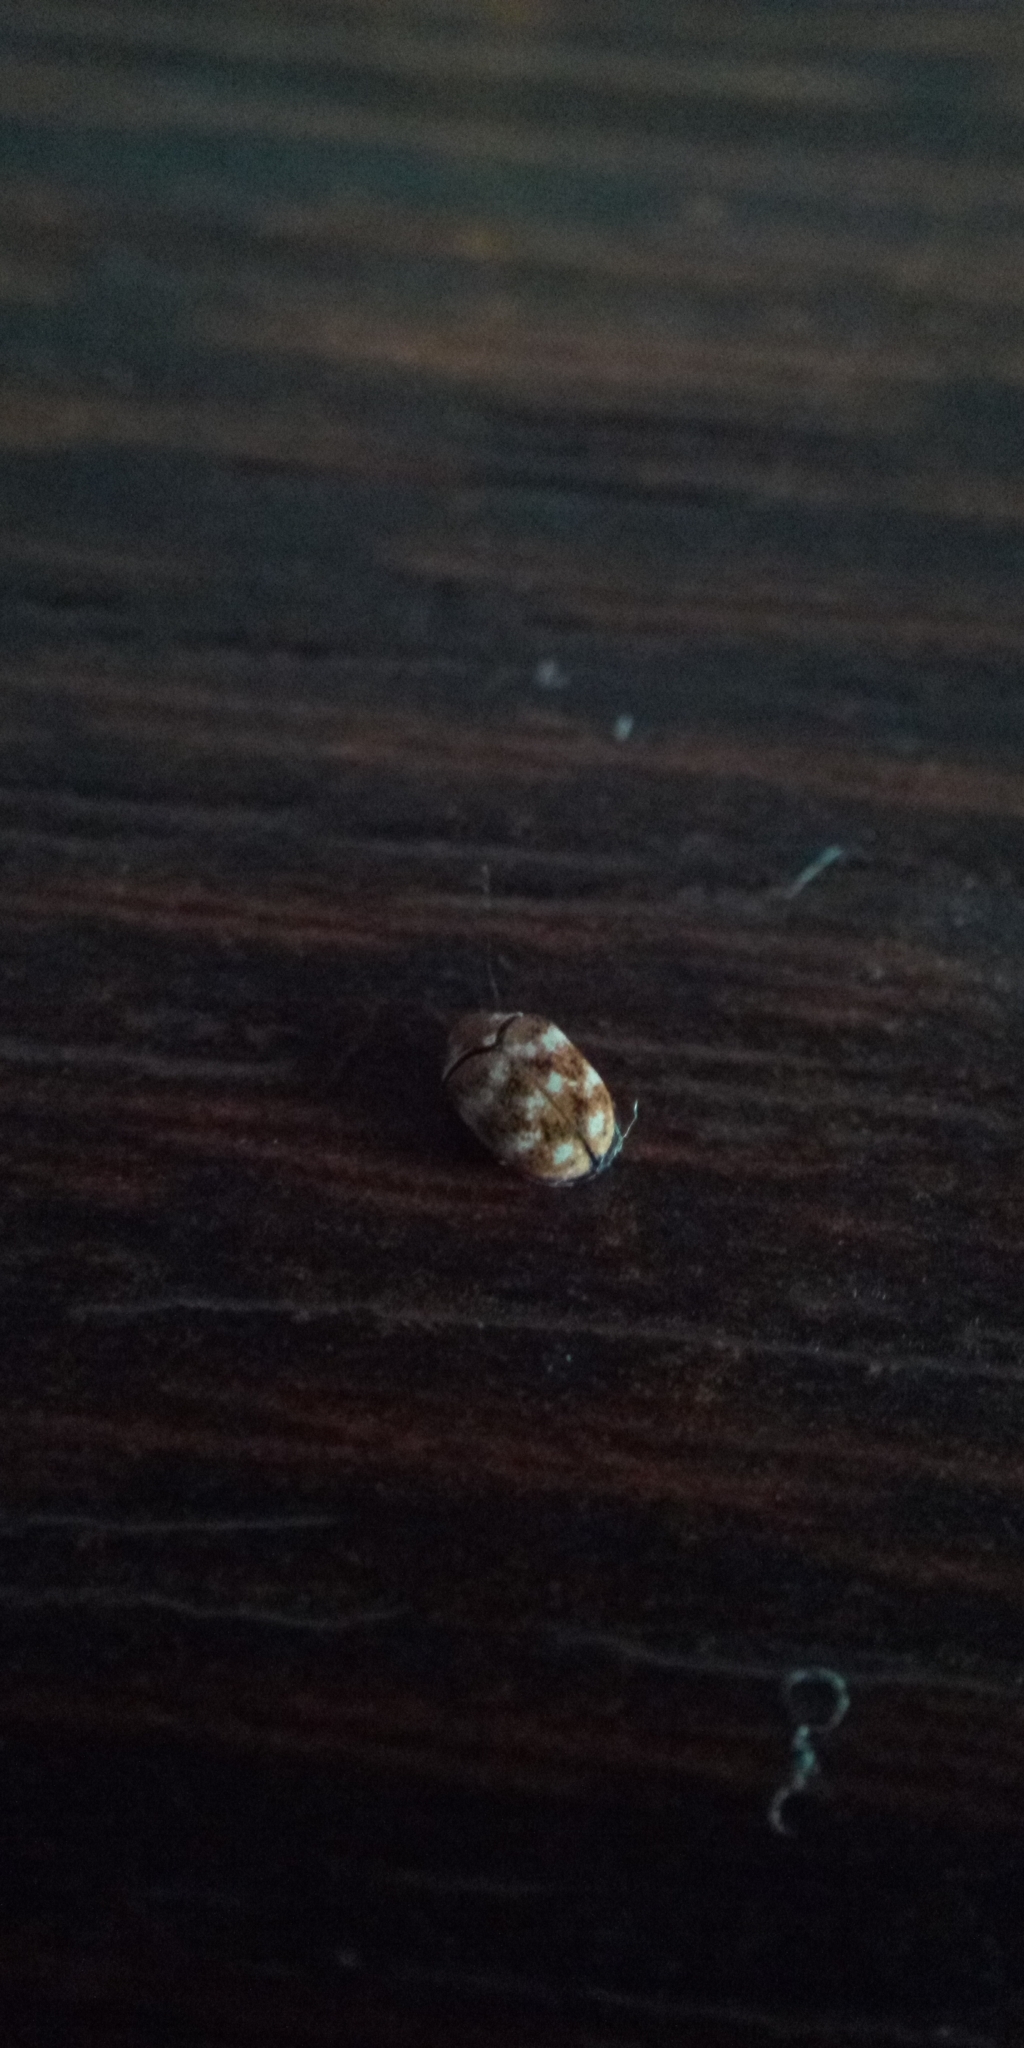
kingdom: Animalia
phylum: Arthropoda
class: Insecta
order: Coleoptera
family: Dermestidae
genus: Anthrenus
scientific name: Anthrenus verbasci
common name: Varied carpet beetle
